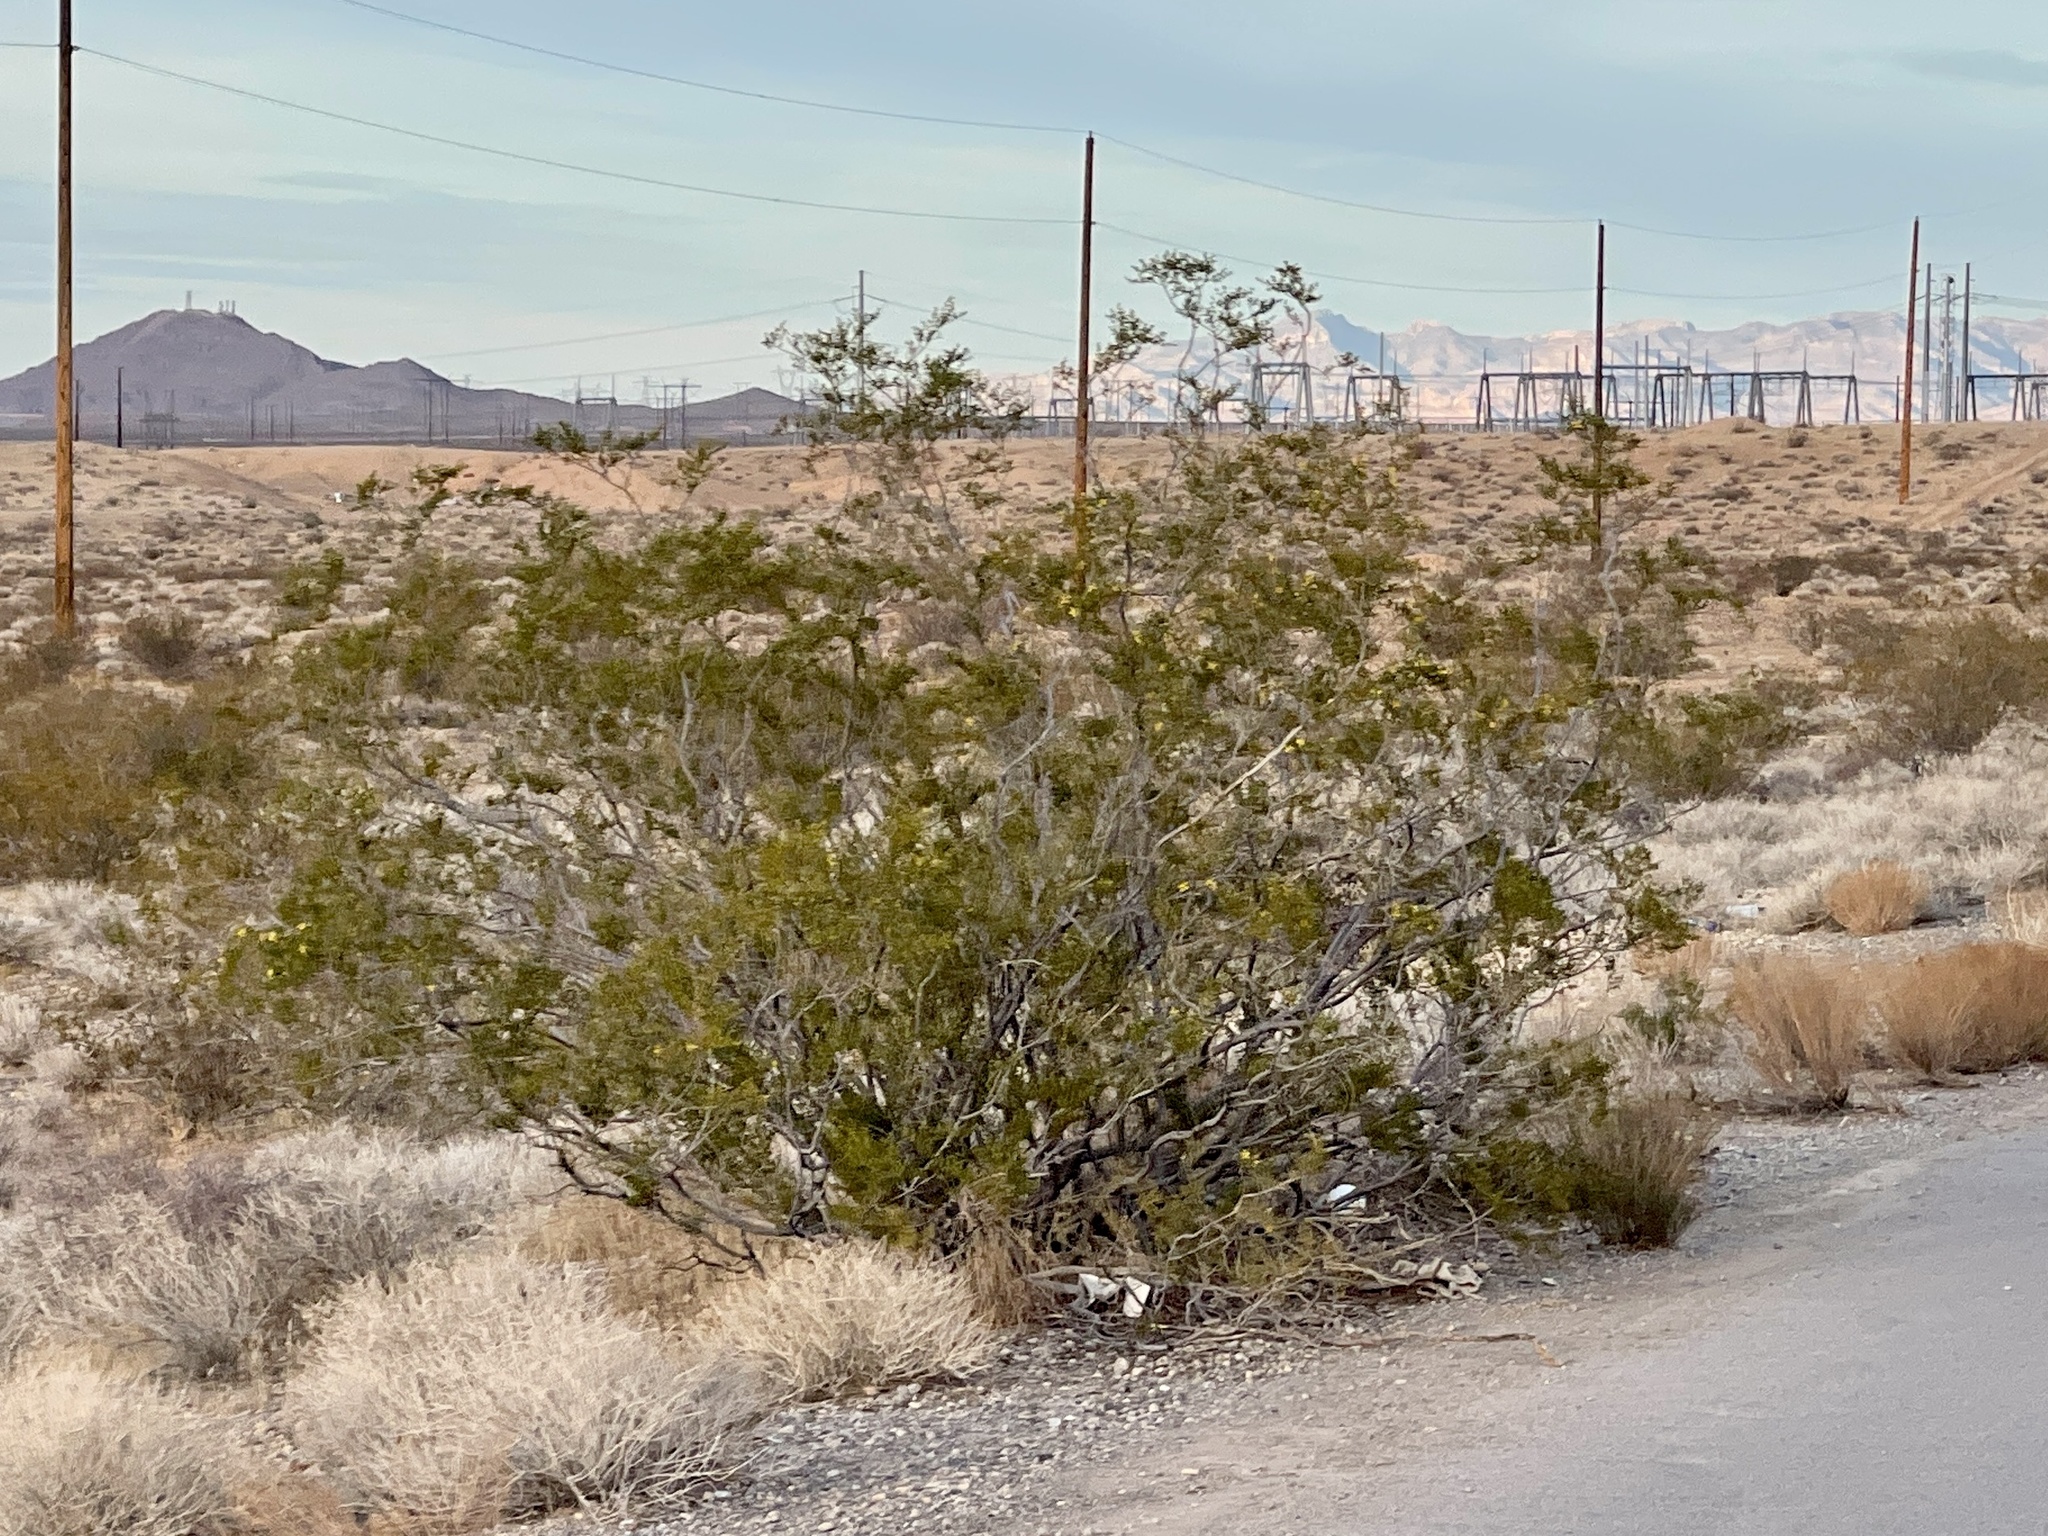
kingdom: Plantae
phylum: Tracheophyta
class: Magnoliopsida
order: Zygophyllales
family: Zygophyllaceae
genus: Larrea
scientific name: Larrea tridentata
